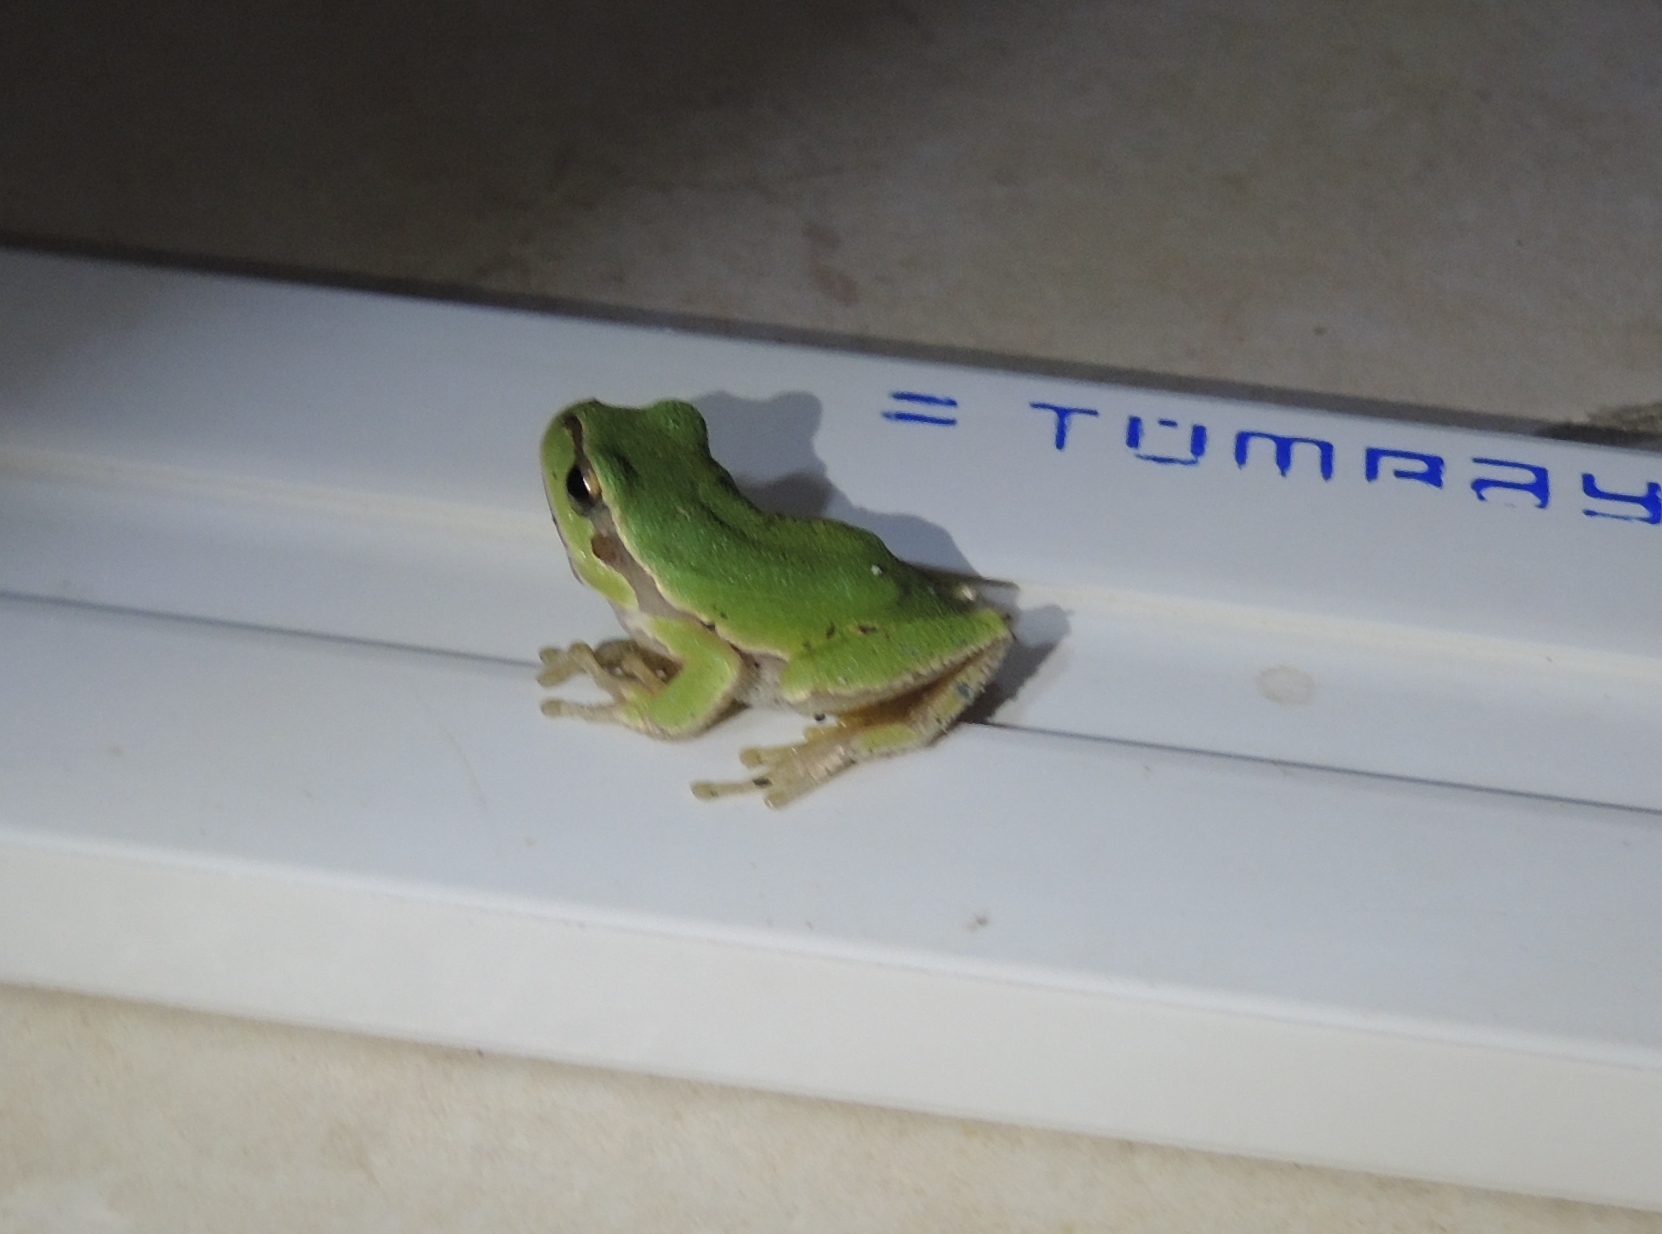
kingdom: Animalia
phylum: Chordata
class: Amphibia
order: Anura
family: Hylidae
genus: Hyla
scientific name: Hyla orientalis
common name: Caucasian treefrog
